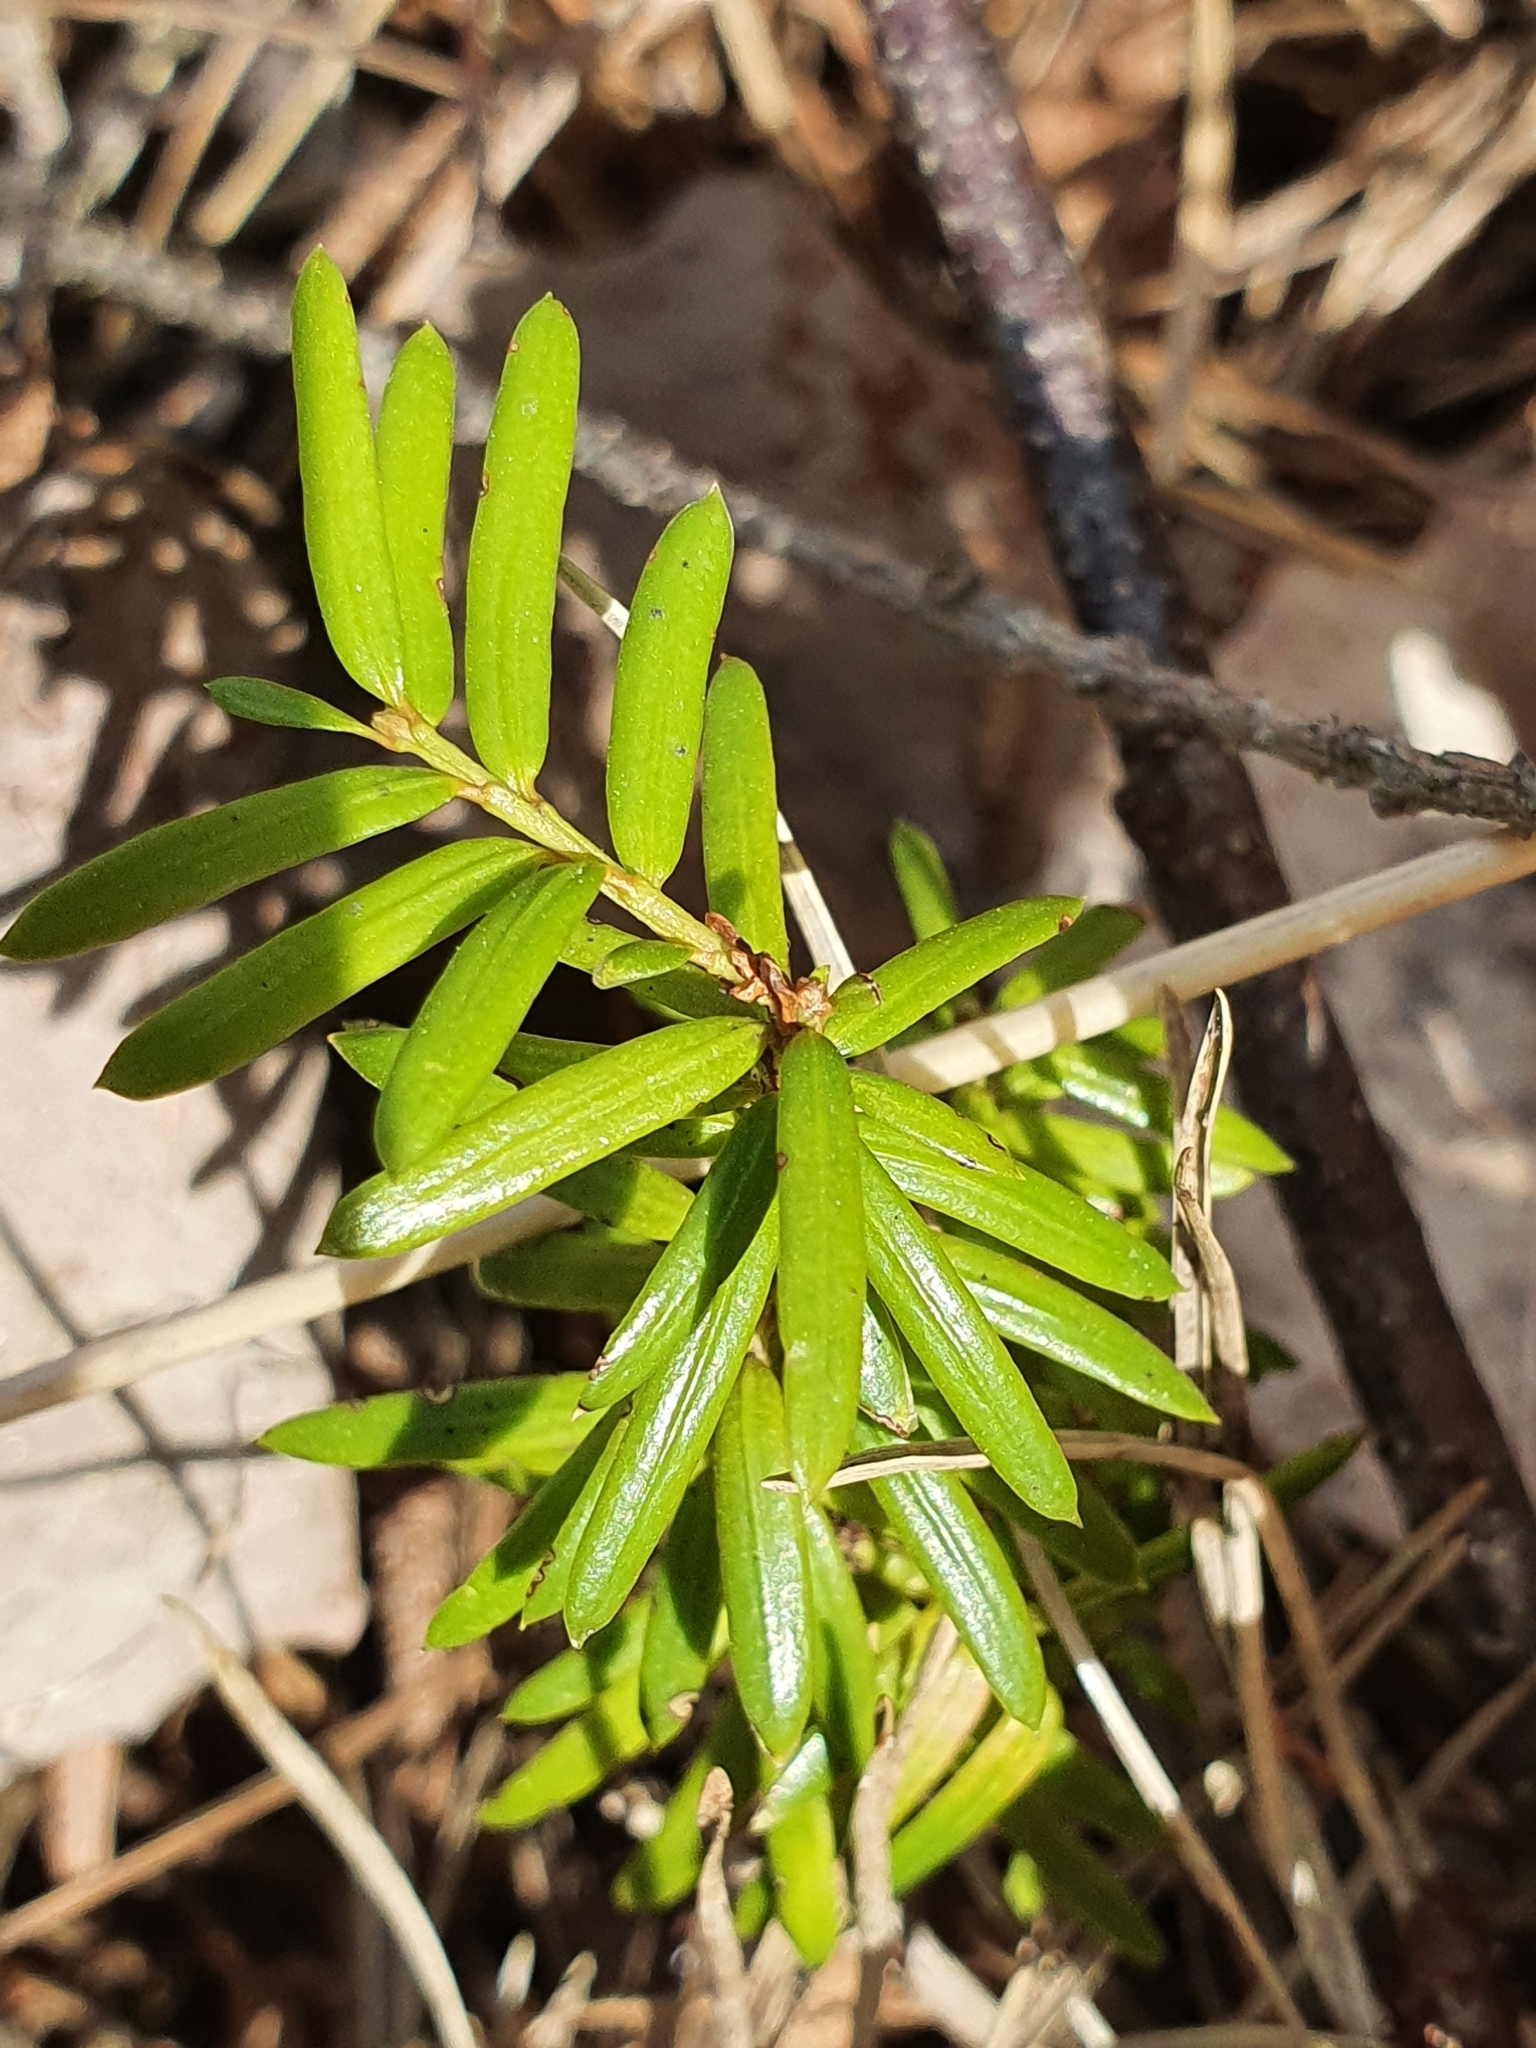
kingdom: Plantae
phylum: Tracheophyta
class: Pinopsida
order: Pinales
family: Taxaceae
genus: Taxus
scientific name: Taxus baccata
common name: Yew
